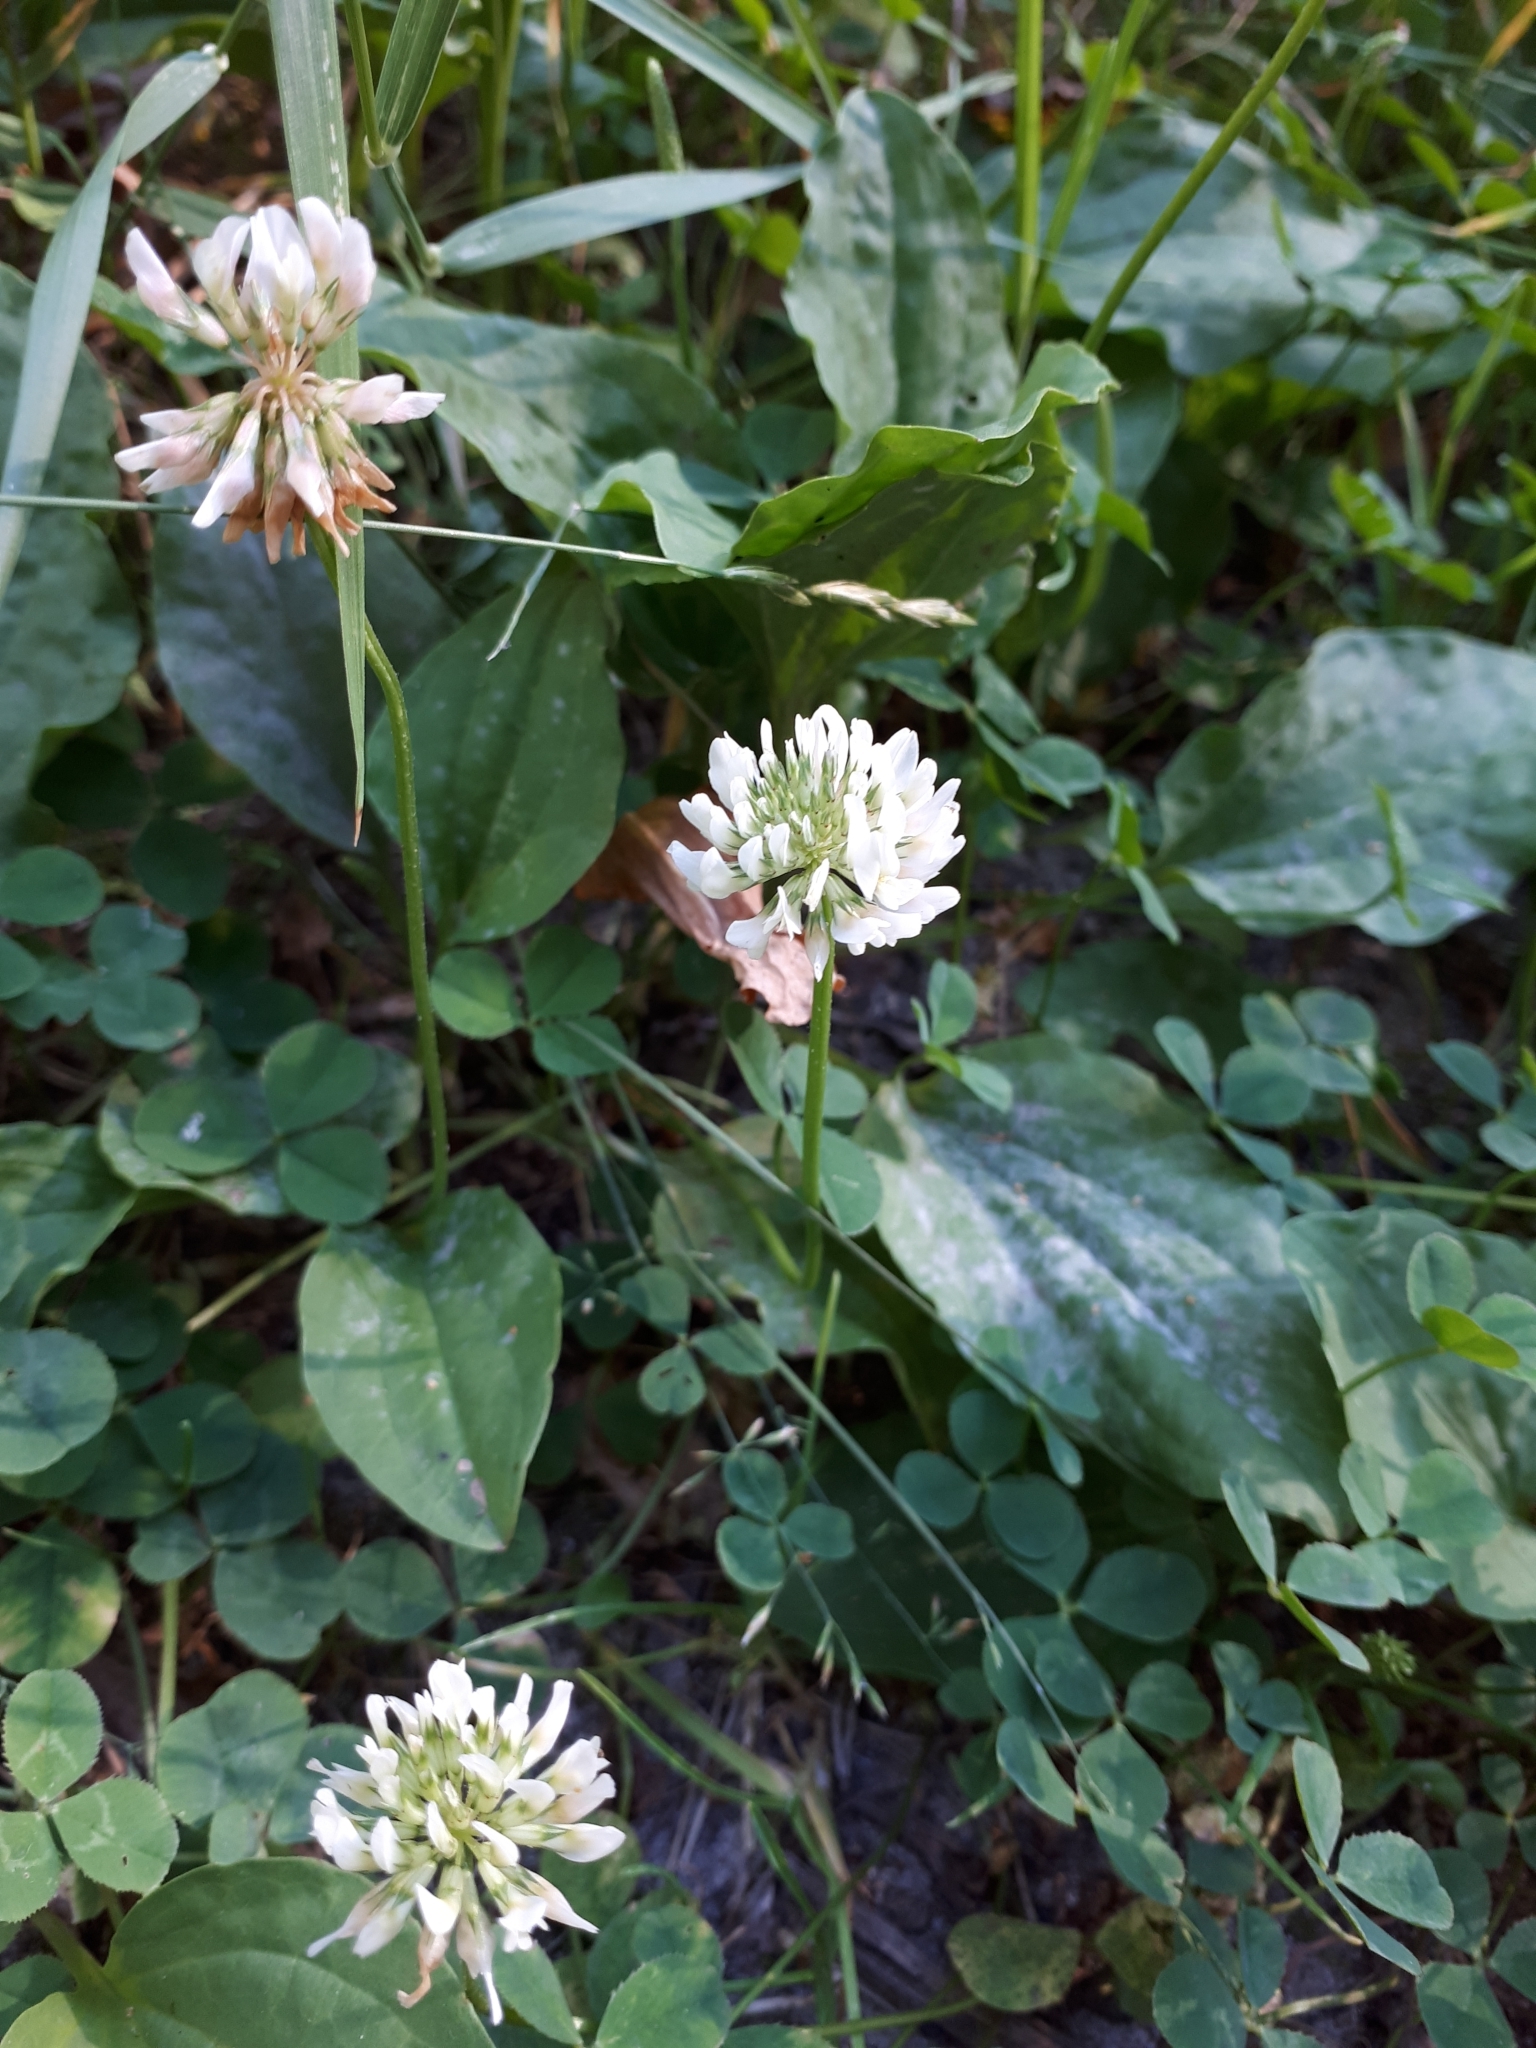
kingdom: Plantae
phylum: Tracheophyta
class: Magnoliopsida
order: Fabales
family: Fabaceae
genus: Trifolium
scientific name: Trifolium repens
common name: White clover
